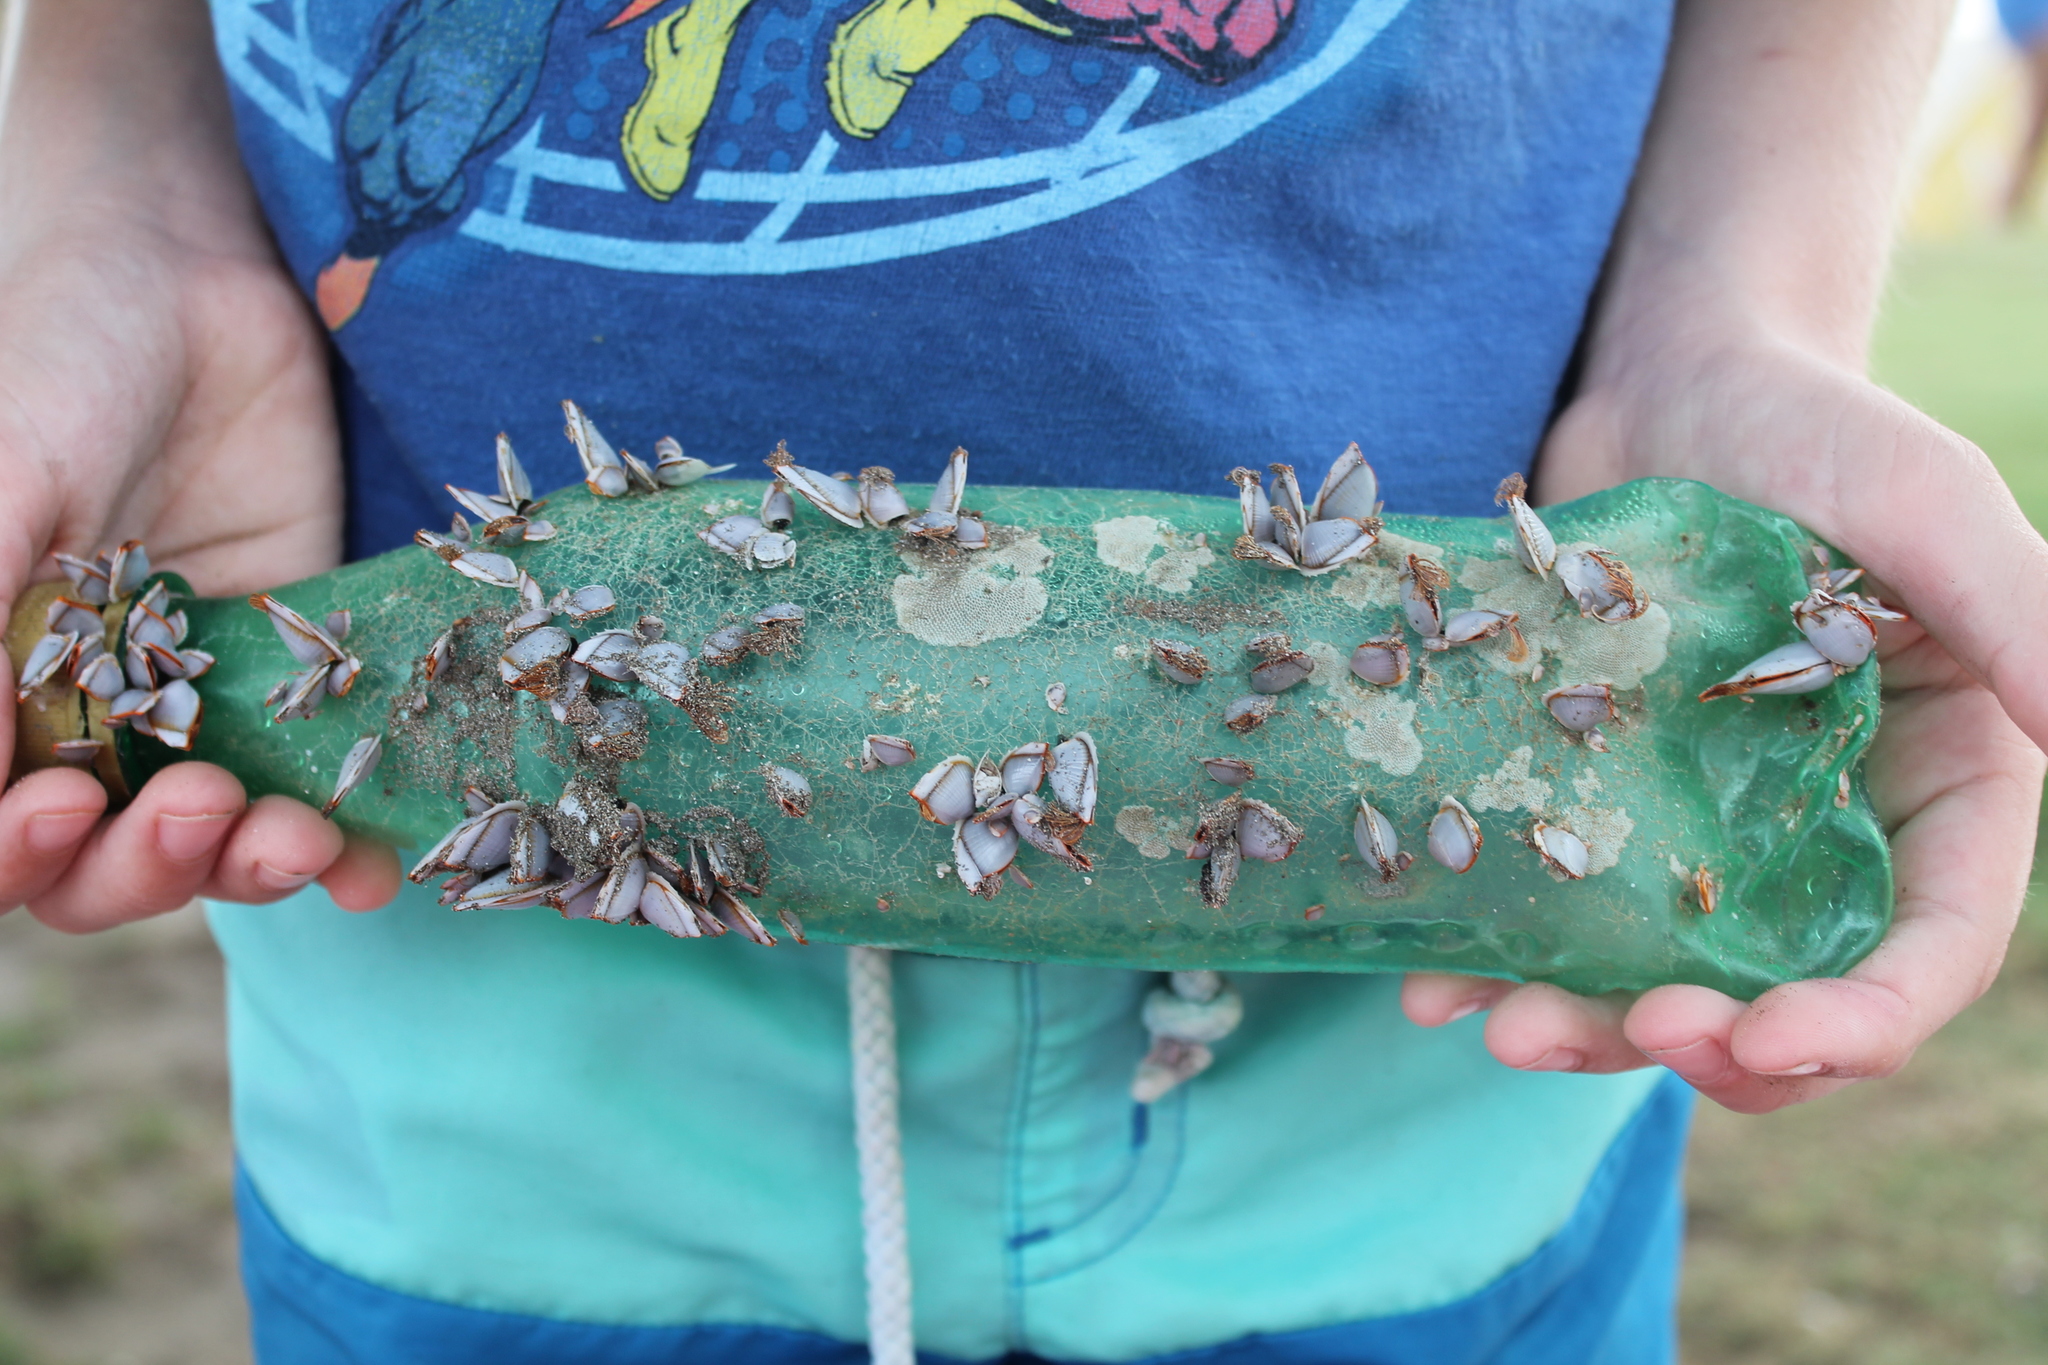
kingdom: Animalia
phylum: Arthropoda
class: Maxillopoda
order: Pedunculata
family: Lepadidae
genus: Lepas
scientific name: Lepas anserifera
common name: Goose barnacle
